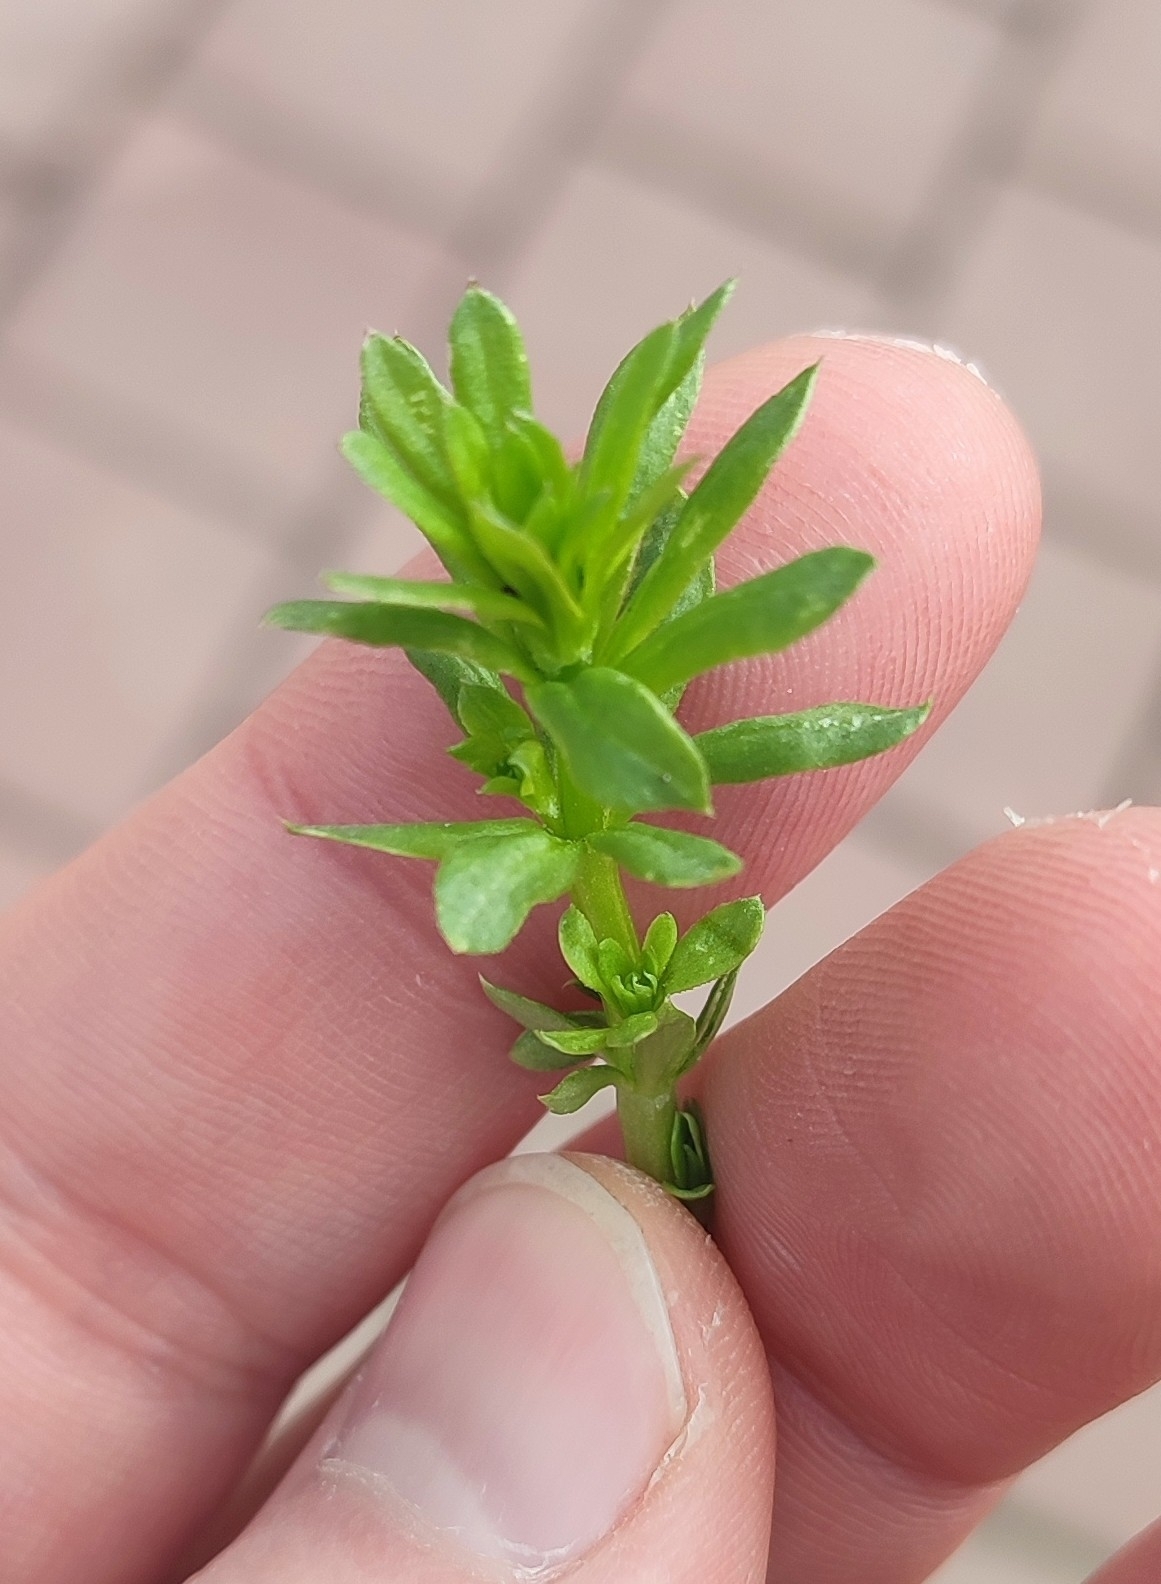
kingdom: Plantae
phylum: Tracheophyta
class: Magnoliopsida
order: Gentianales
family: Rubiaceae
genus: Galium
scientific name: Galium mollugo
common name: Hedge bedstraw
